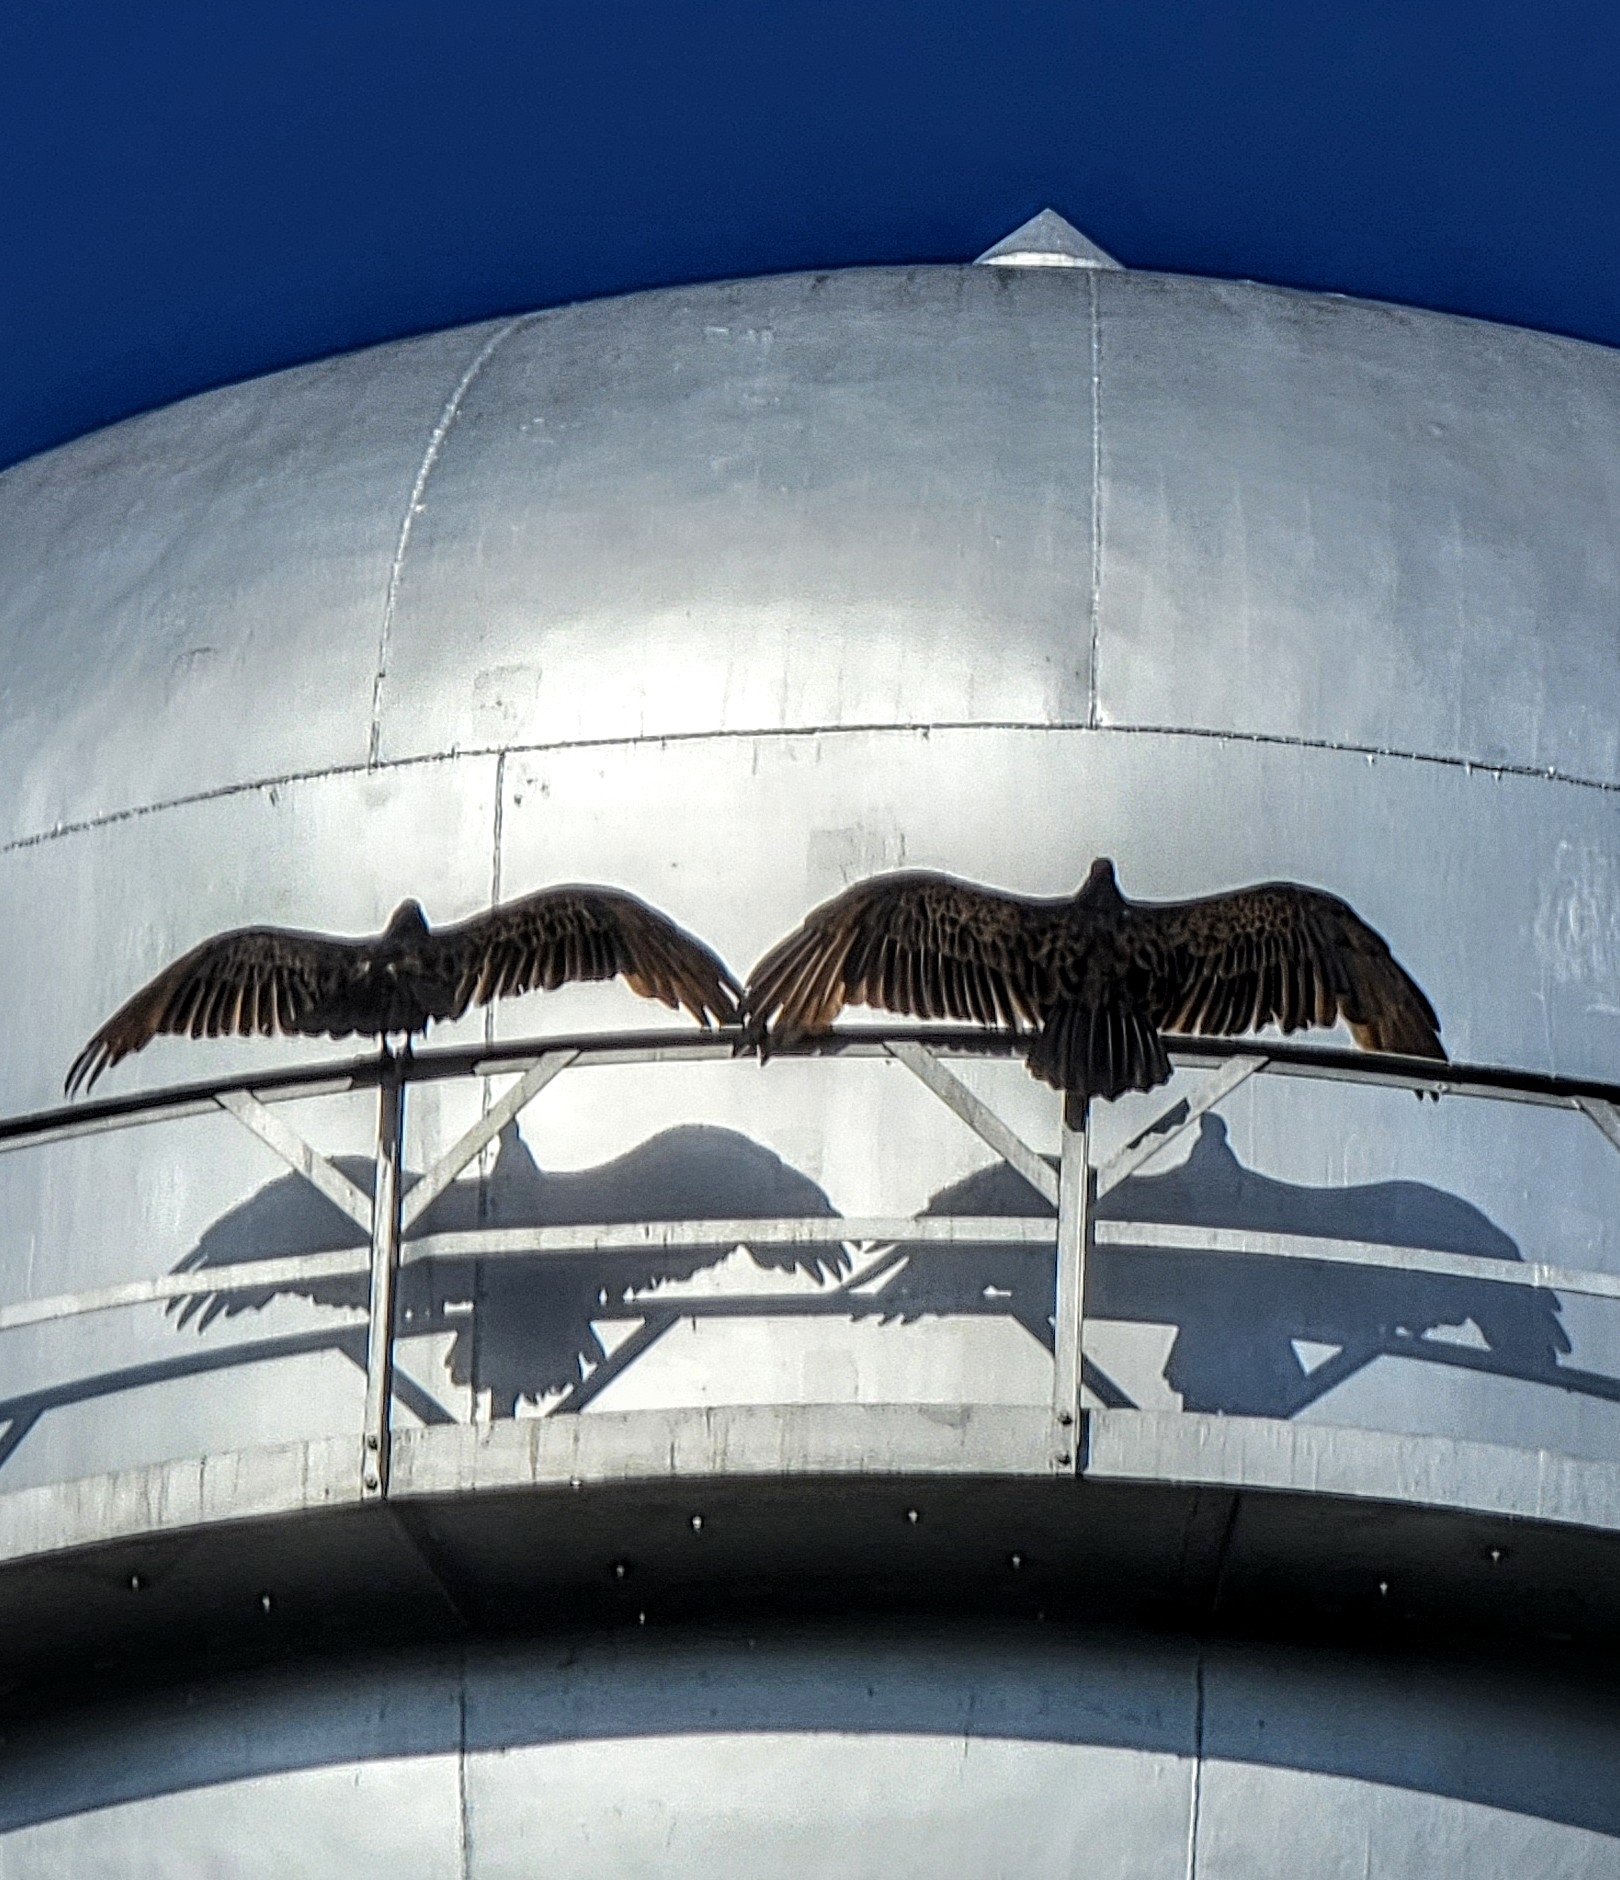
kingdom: Animalia
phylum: Chordata
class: Aves
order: Accipitriformes
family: Cathartidae
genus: Cathartes
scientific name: Cathartes aura
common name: Turkey vulture
